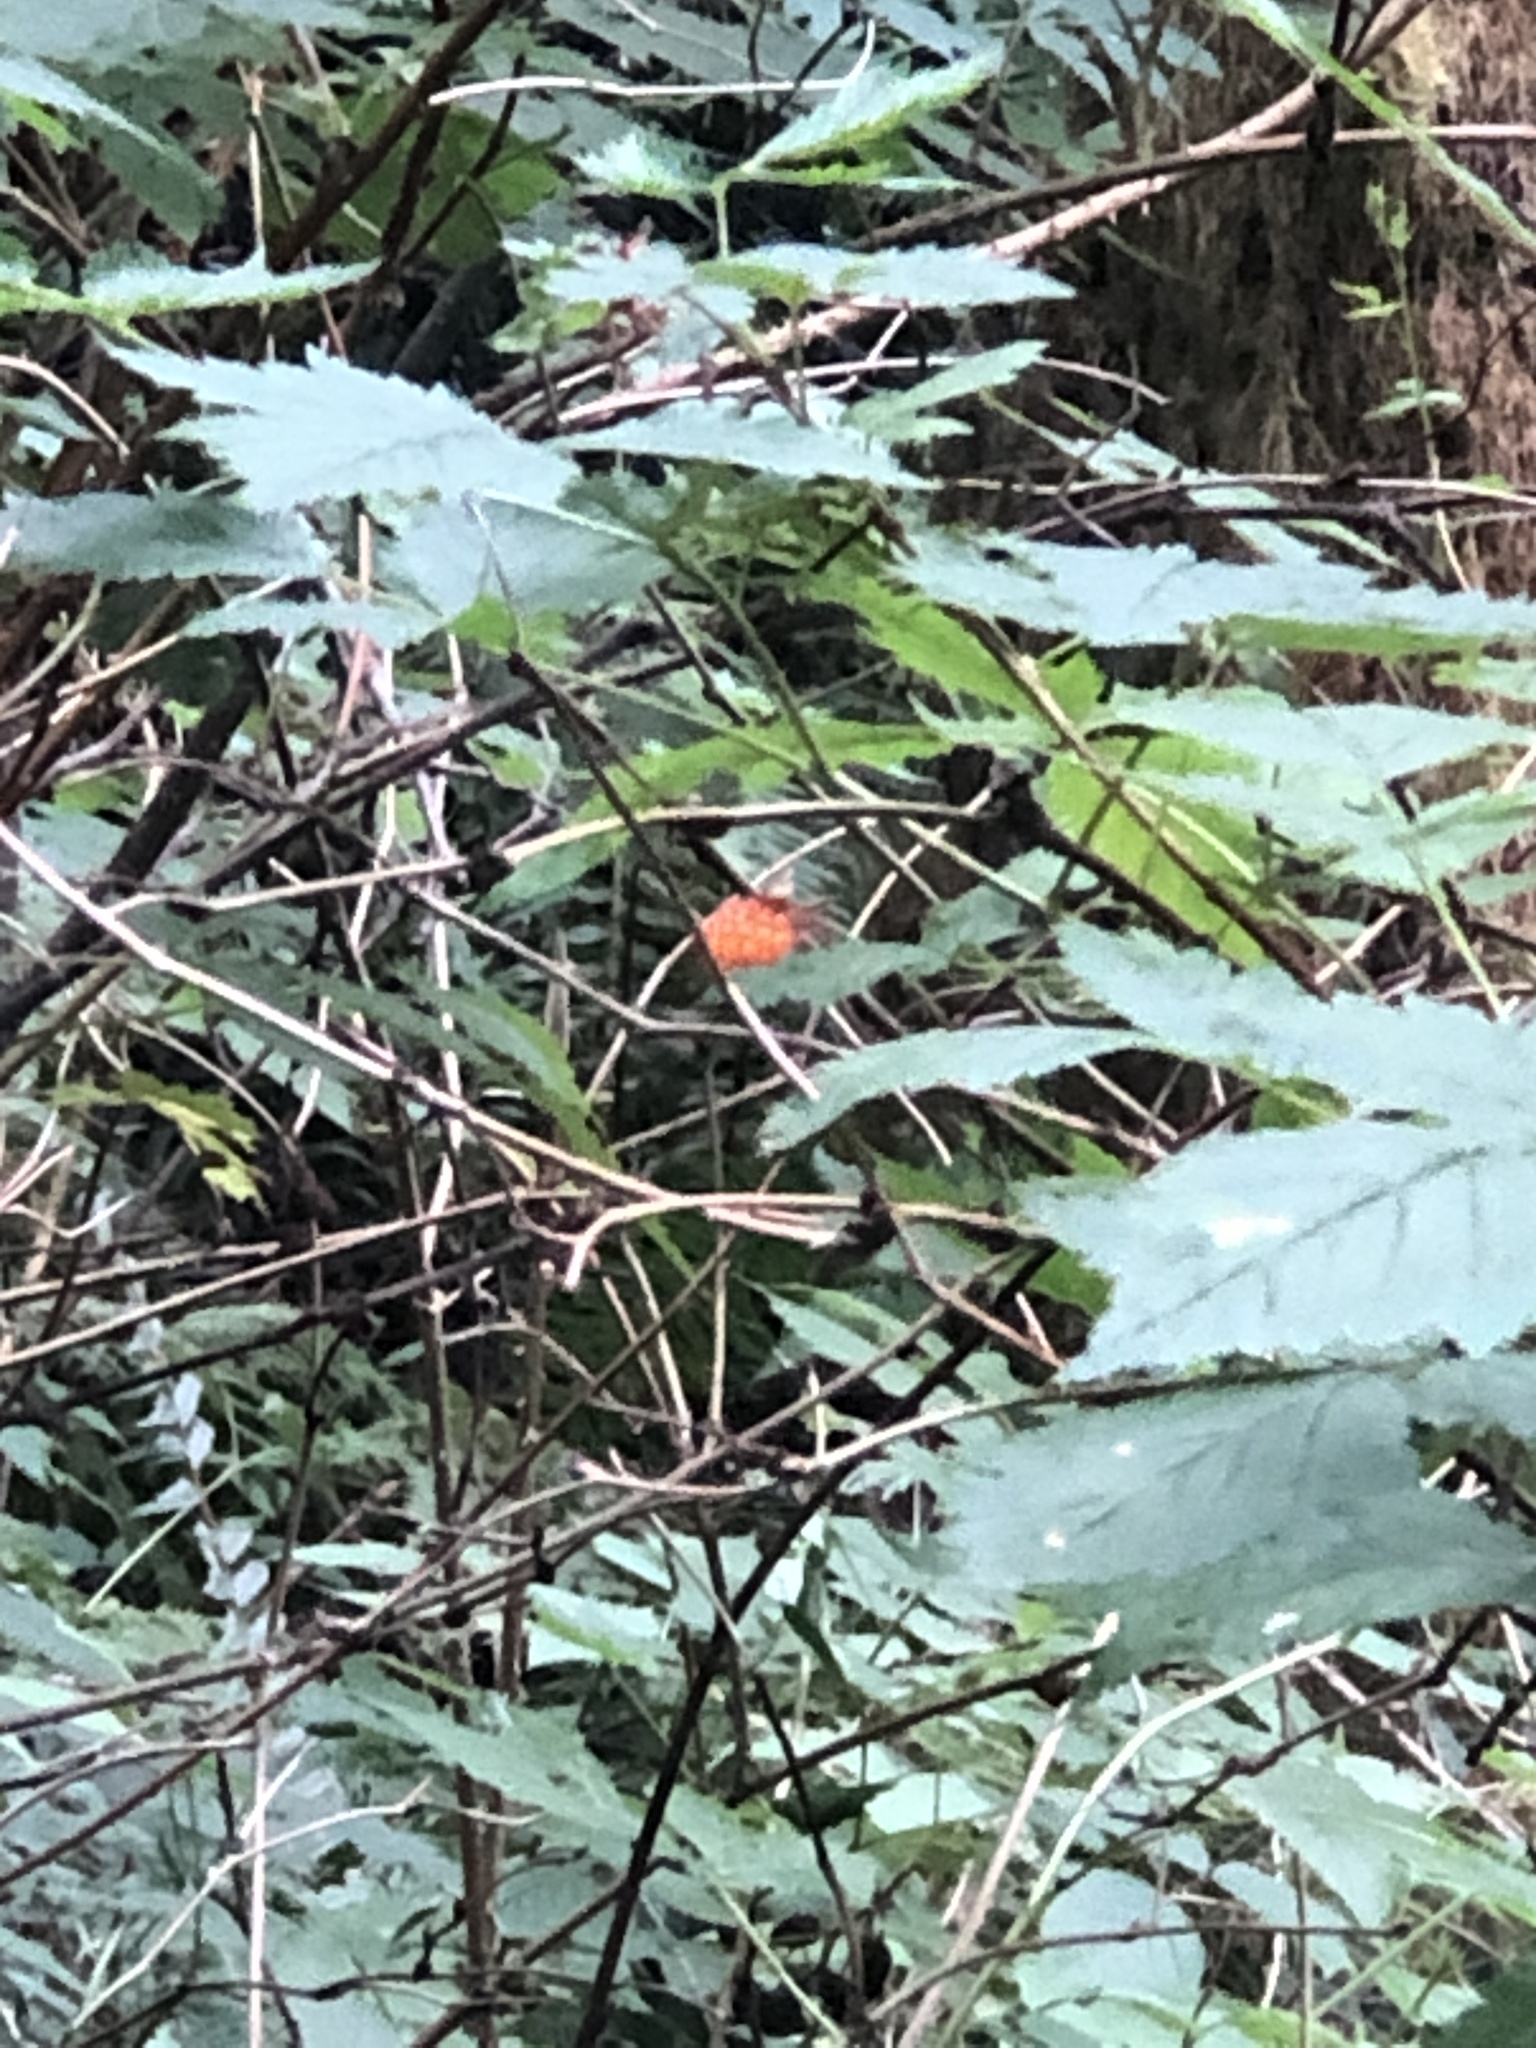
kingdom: Plantae
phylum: Tracheophyta
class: Magnoliopsida
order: Rosales
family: Rosaceae
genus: Rubus
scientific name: Rubus spectabilis
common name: Salmonberry
